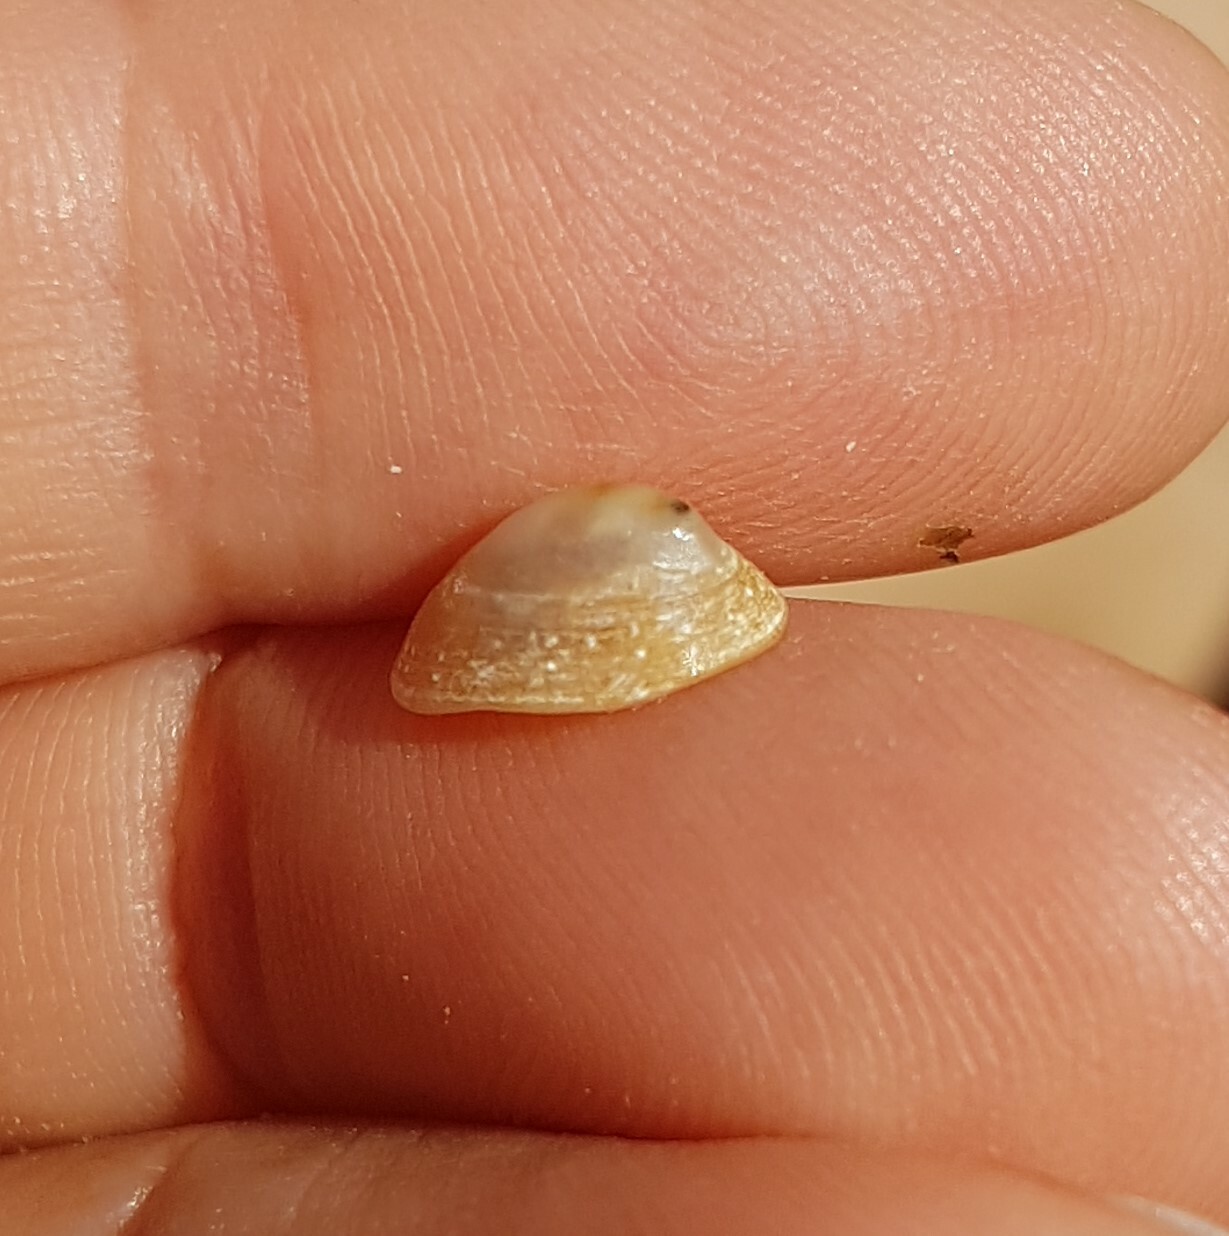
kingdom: Animalia
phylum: Mollusca
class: Gastropoda
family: Patellidae
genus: Patella
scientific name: Patella pellucida
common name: Blue-rayed limpet
